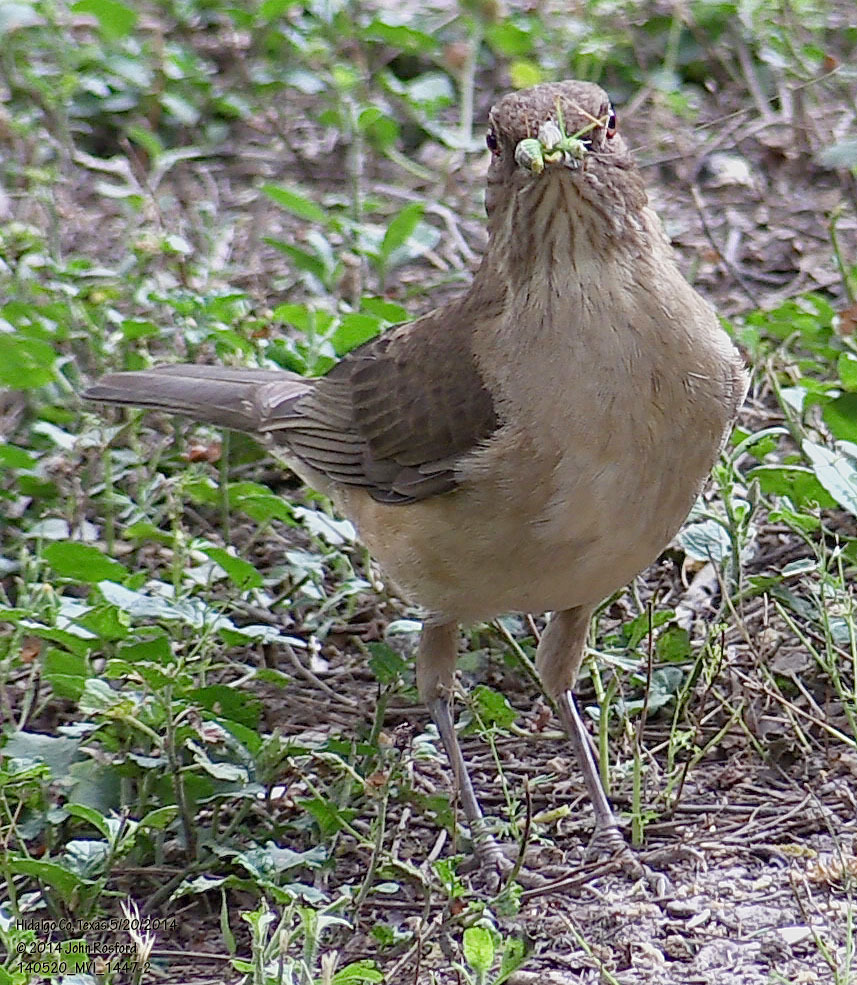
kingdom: Animalia
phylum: Chordata
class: Aves
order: Passeriformes
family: Turdidae
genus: Turdus
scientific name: Turdus grayi
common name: Clay-colored thrush
